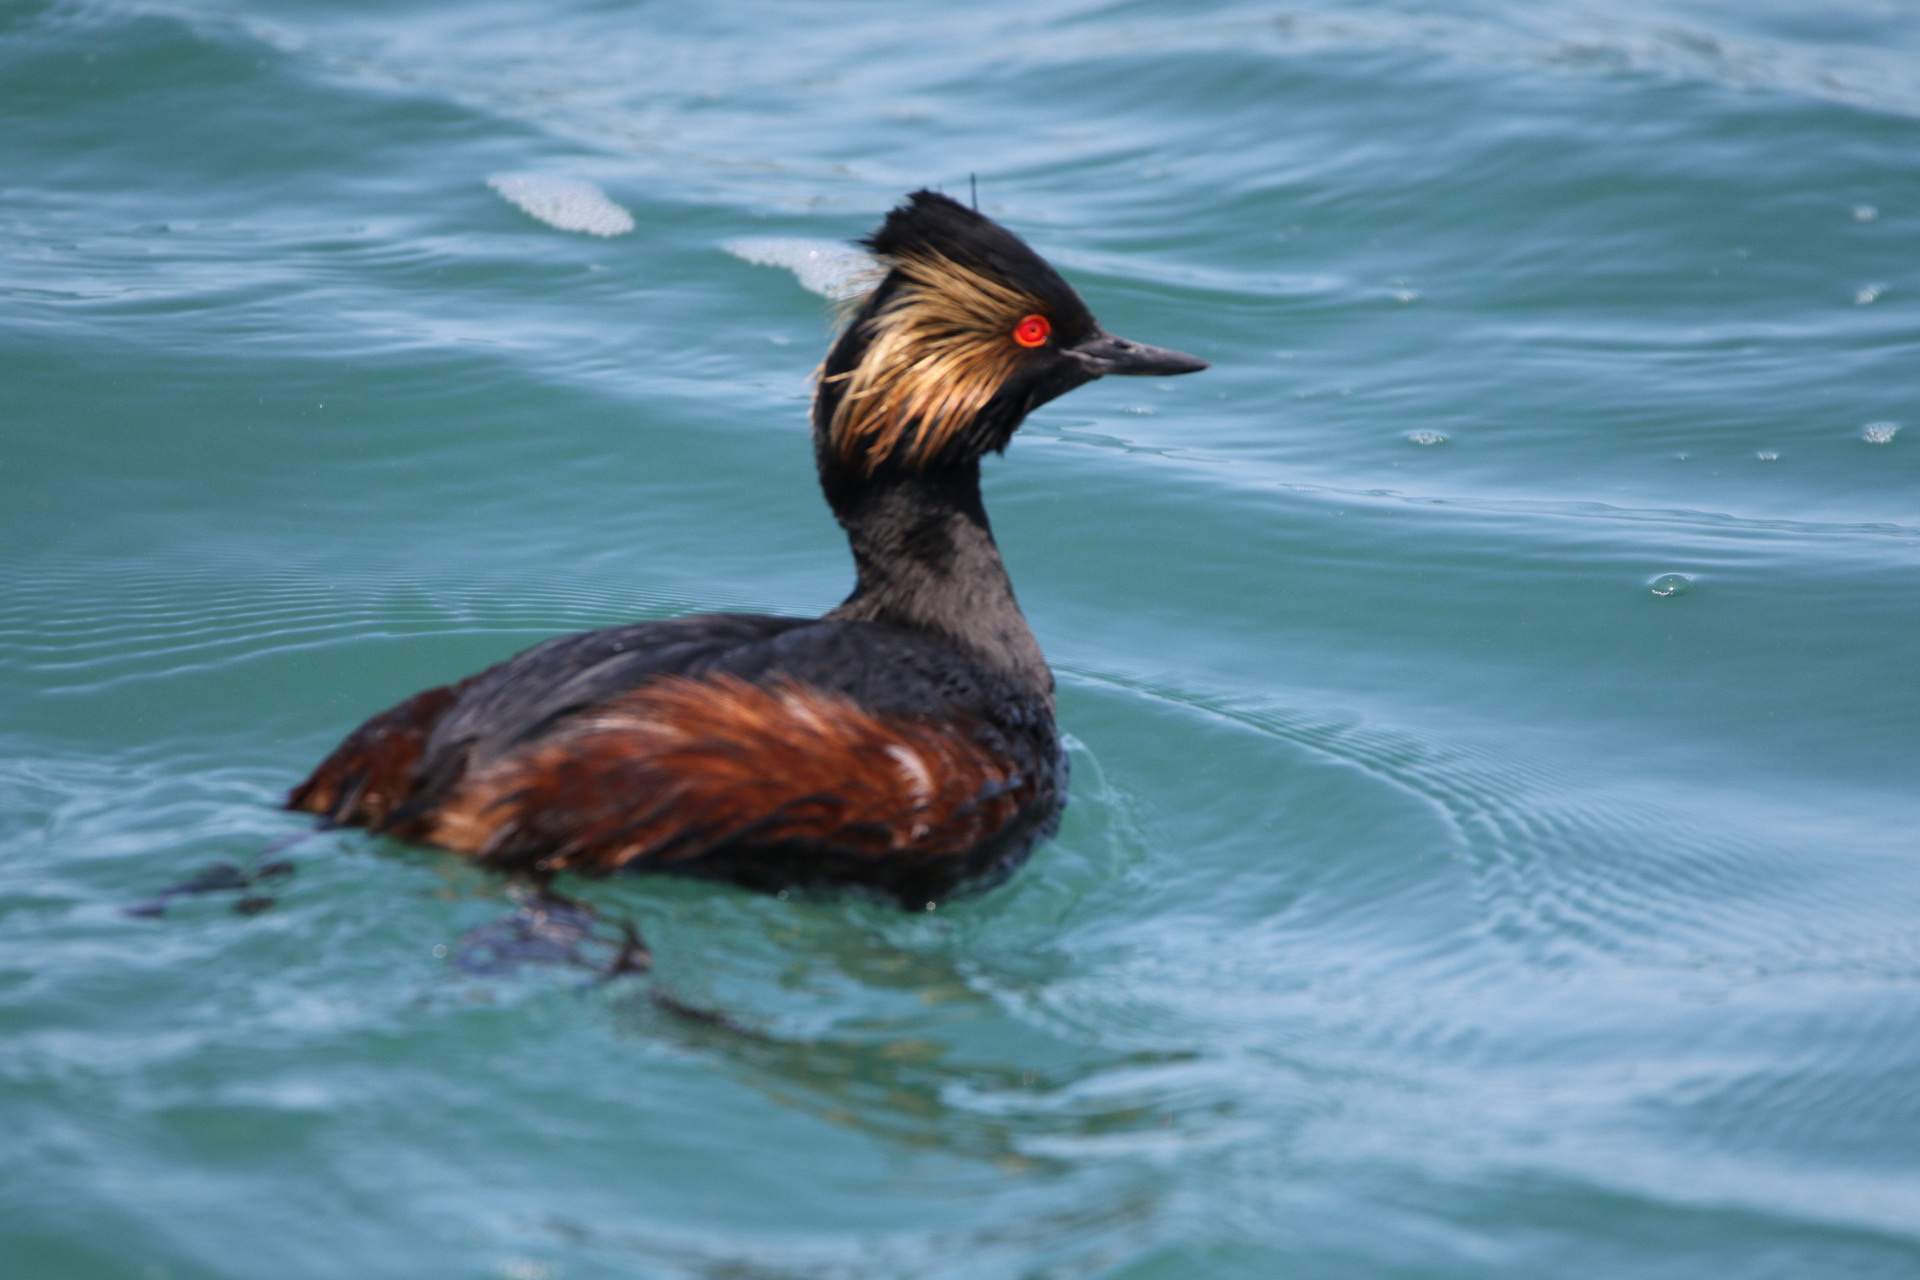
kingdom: Animalia
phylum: Chordata
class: Aves
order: Podicipediformes
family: Podicipedidae
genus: Podiceps
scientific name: Podiceps nigricollis
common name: Black-necked grebe
